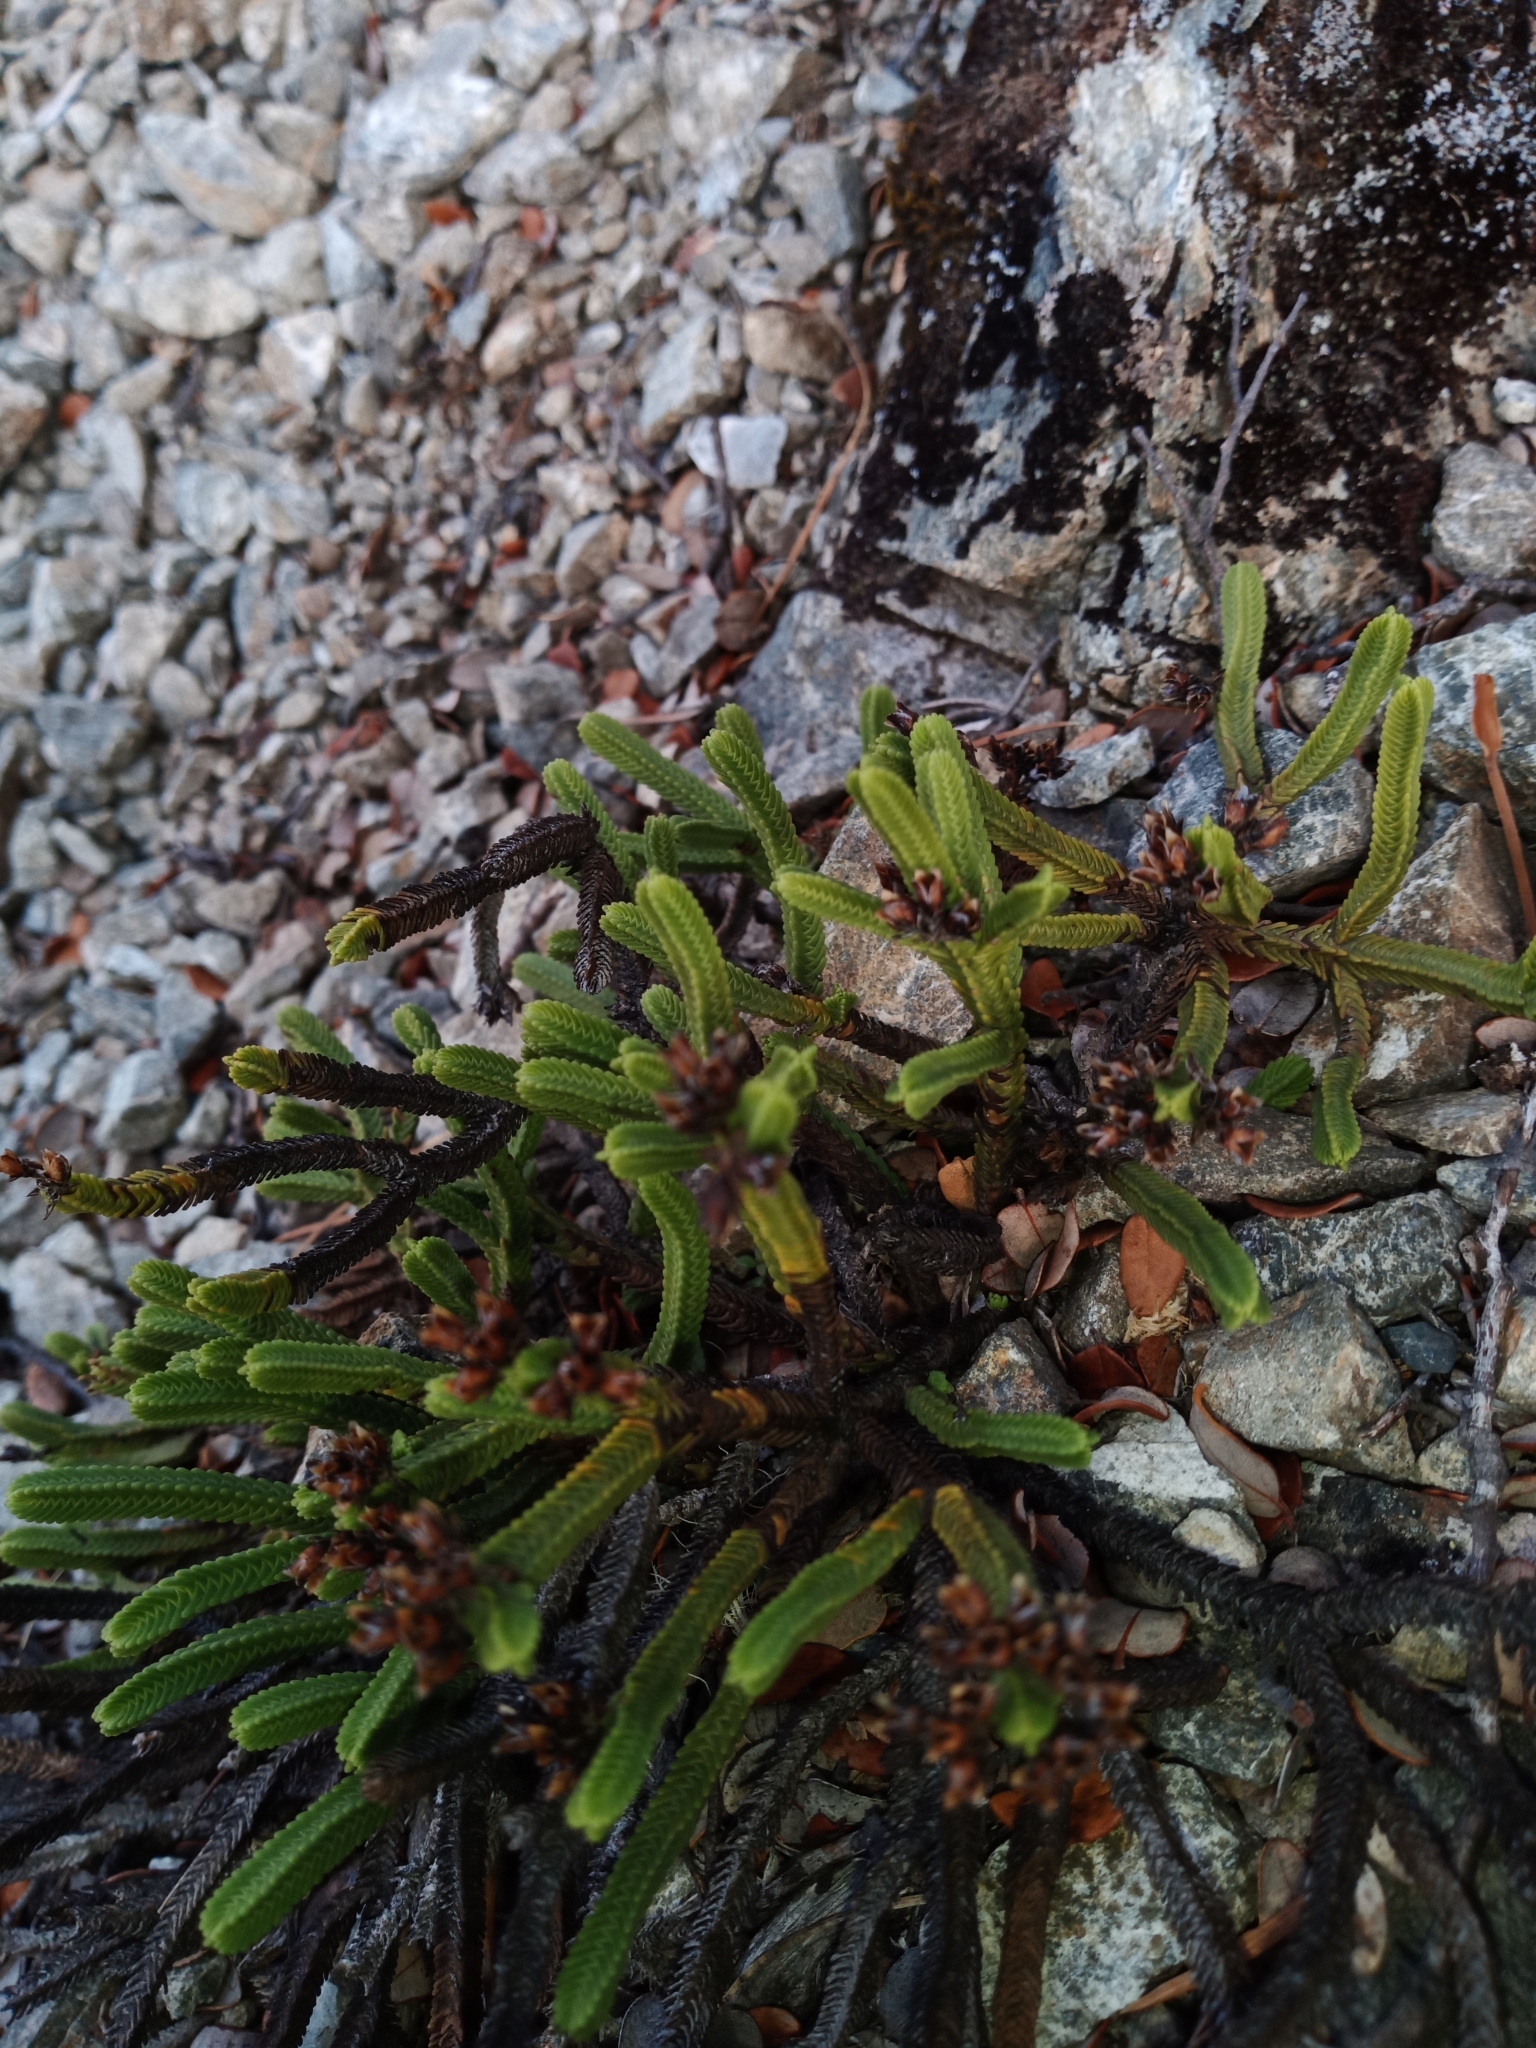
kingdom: Plantae
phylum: Tracheophyta
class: Magnoliopsida
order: Lamiales
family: Plantaginaceae
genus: Veronica
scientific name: Veronica tetrasticha
